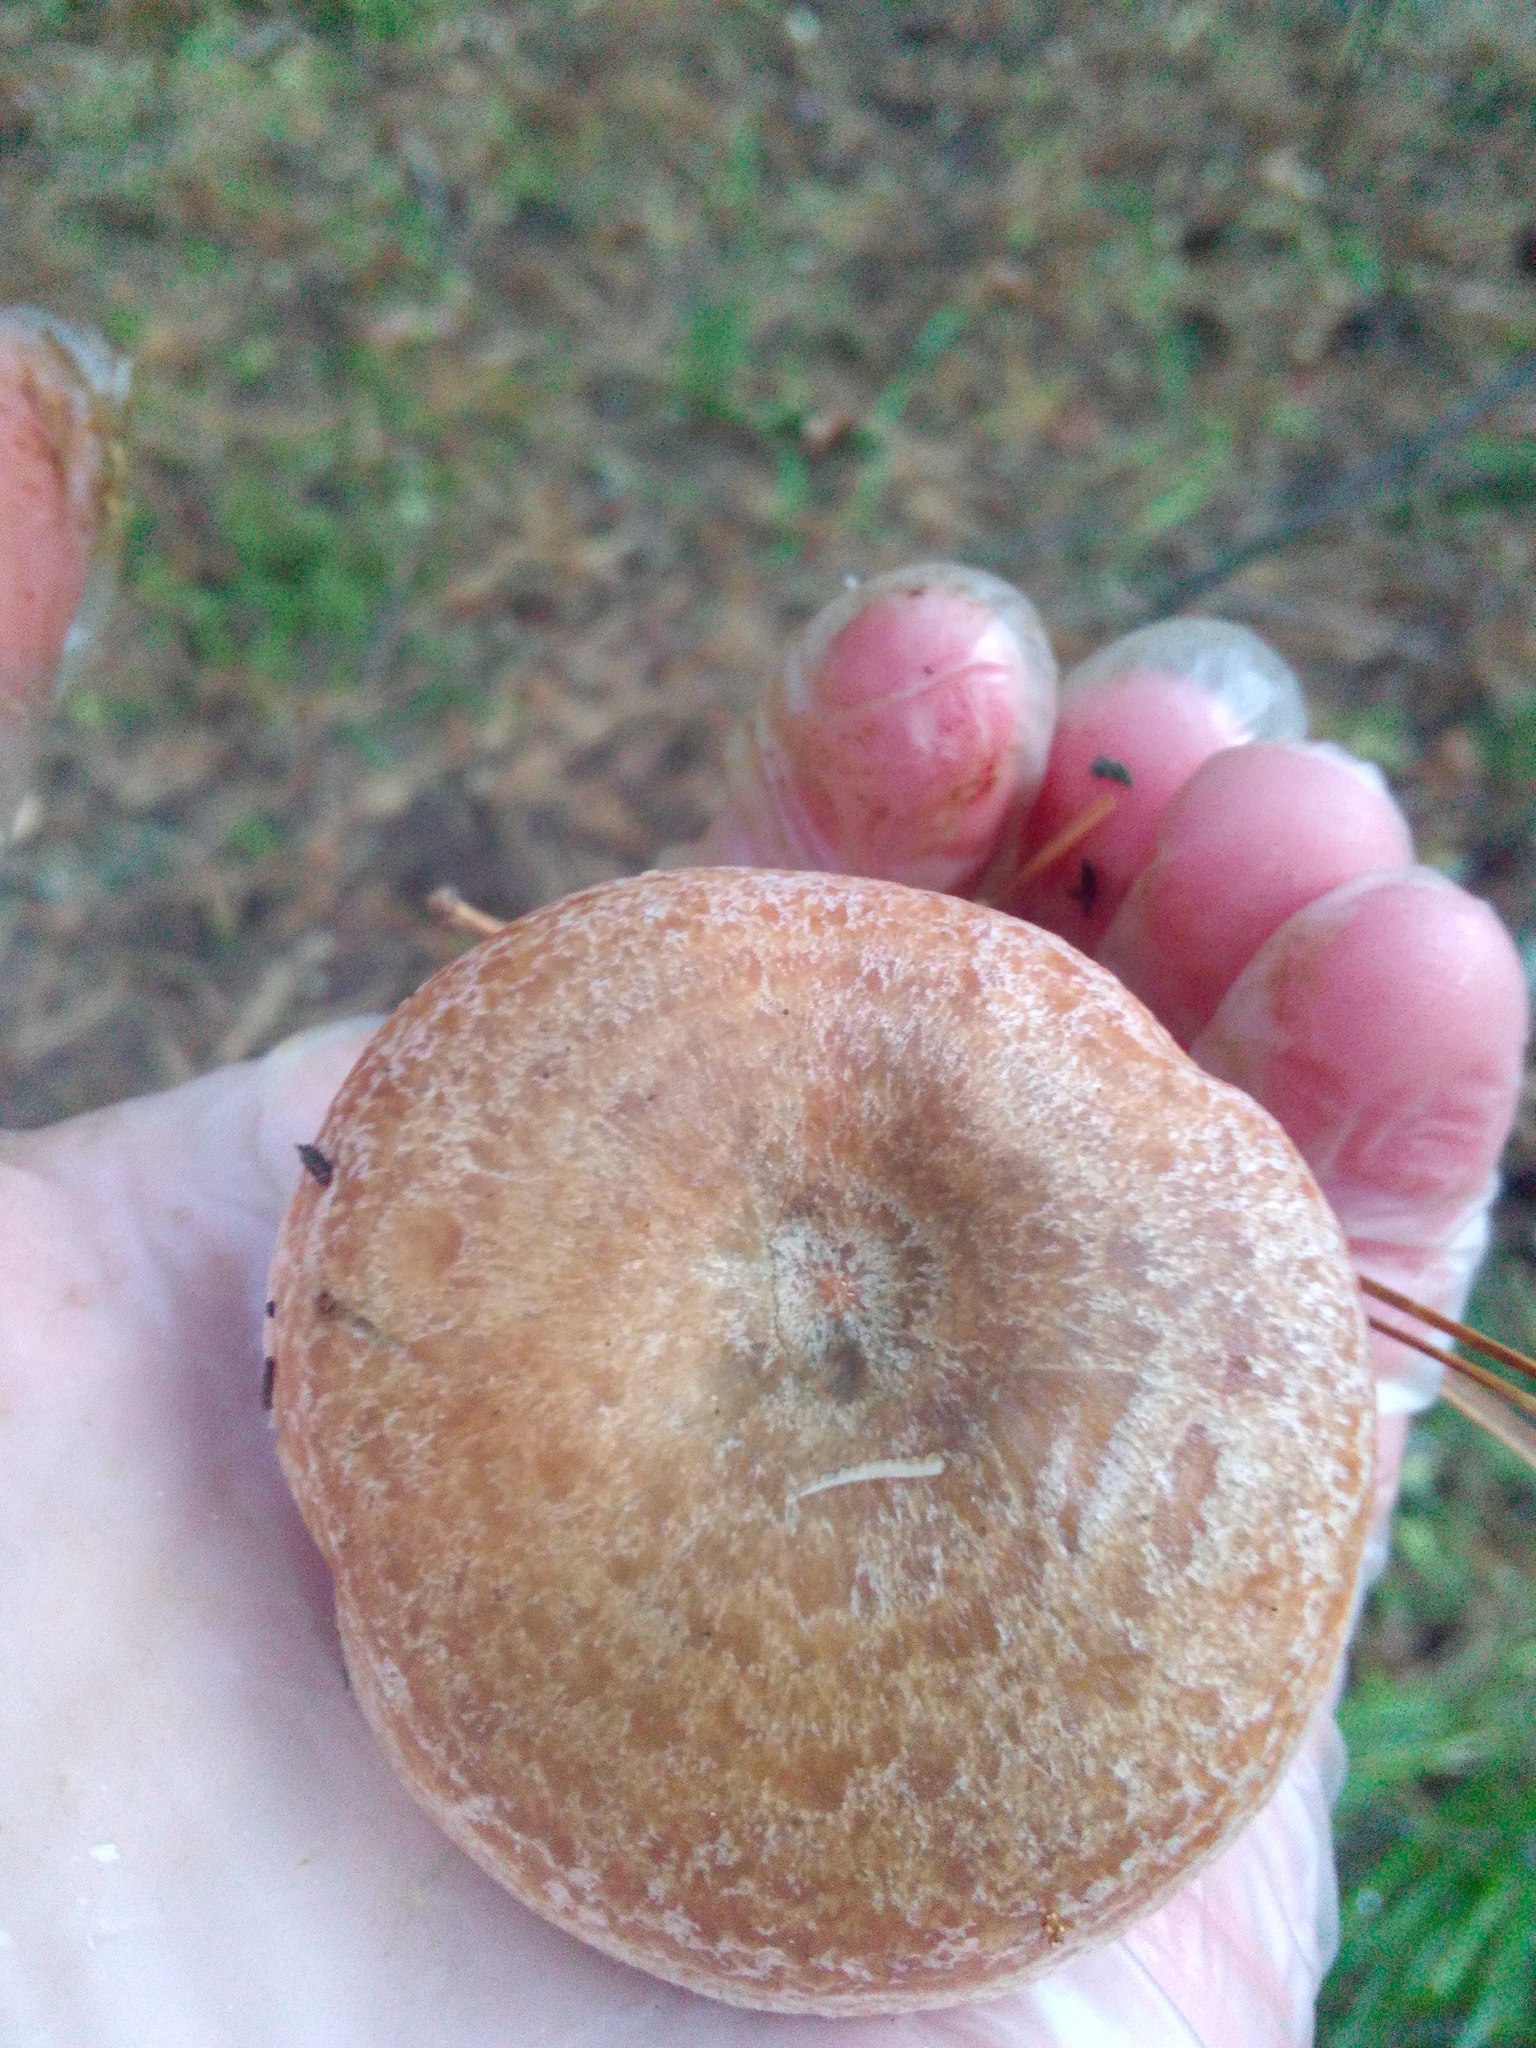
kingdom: Fungi
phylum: Basidiomycota
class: Agaricomycetes
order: Russulales
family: Russulaceae
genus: Lactarius
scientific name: Lactarius deliciosus
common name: Saffron milk-cap
